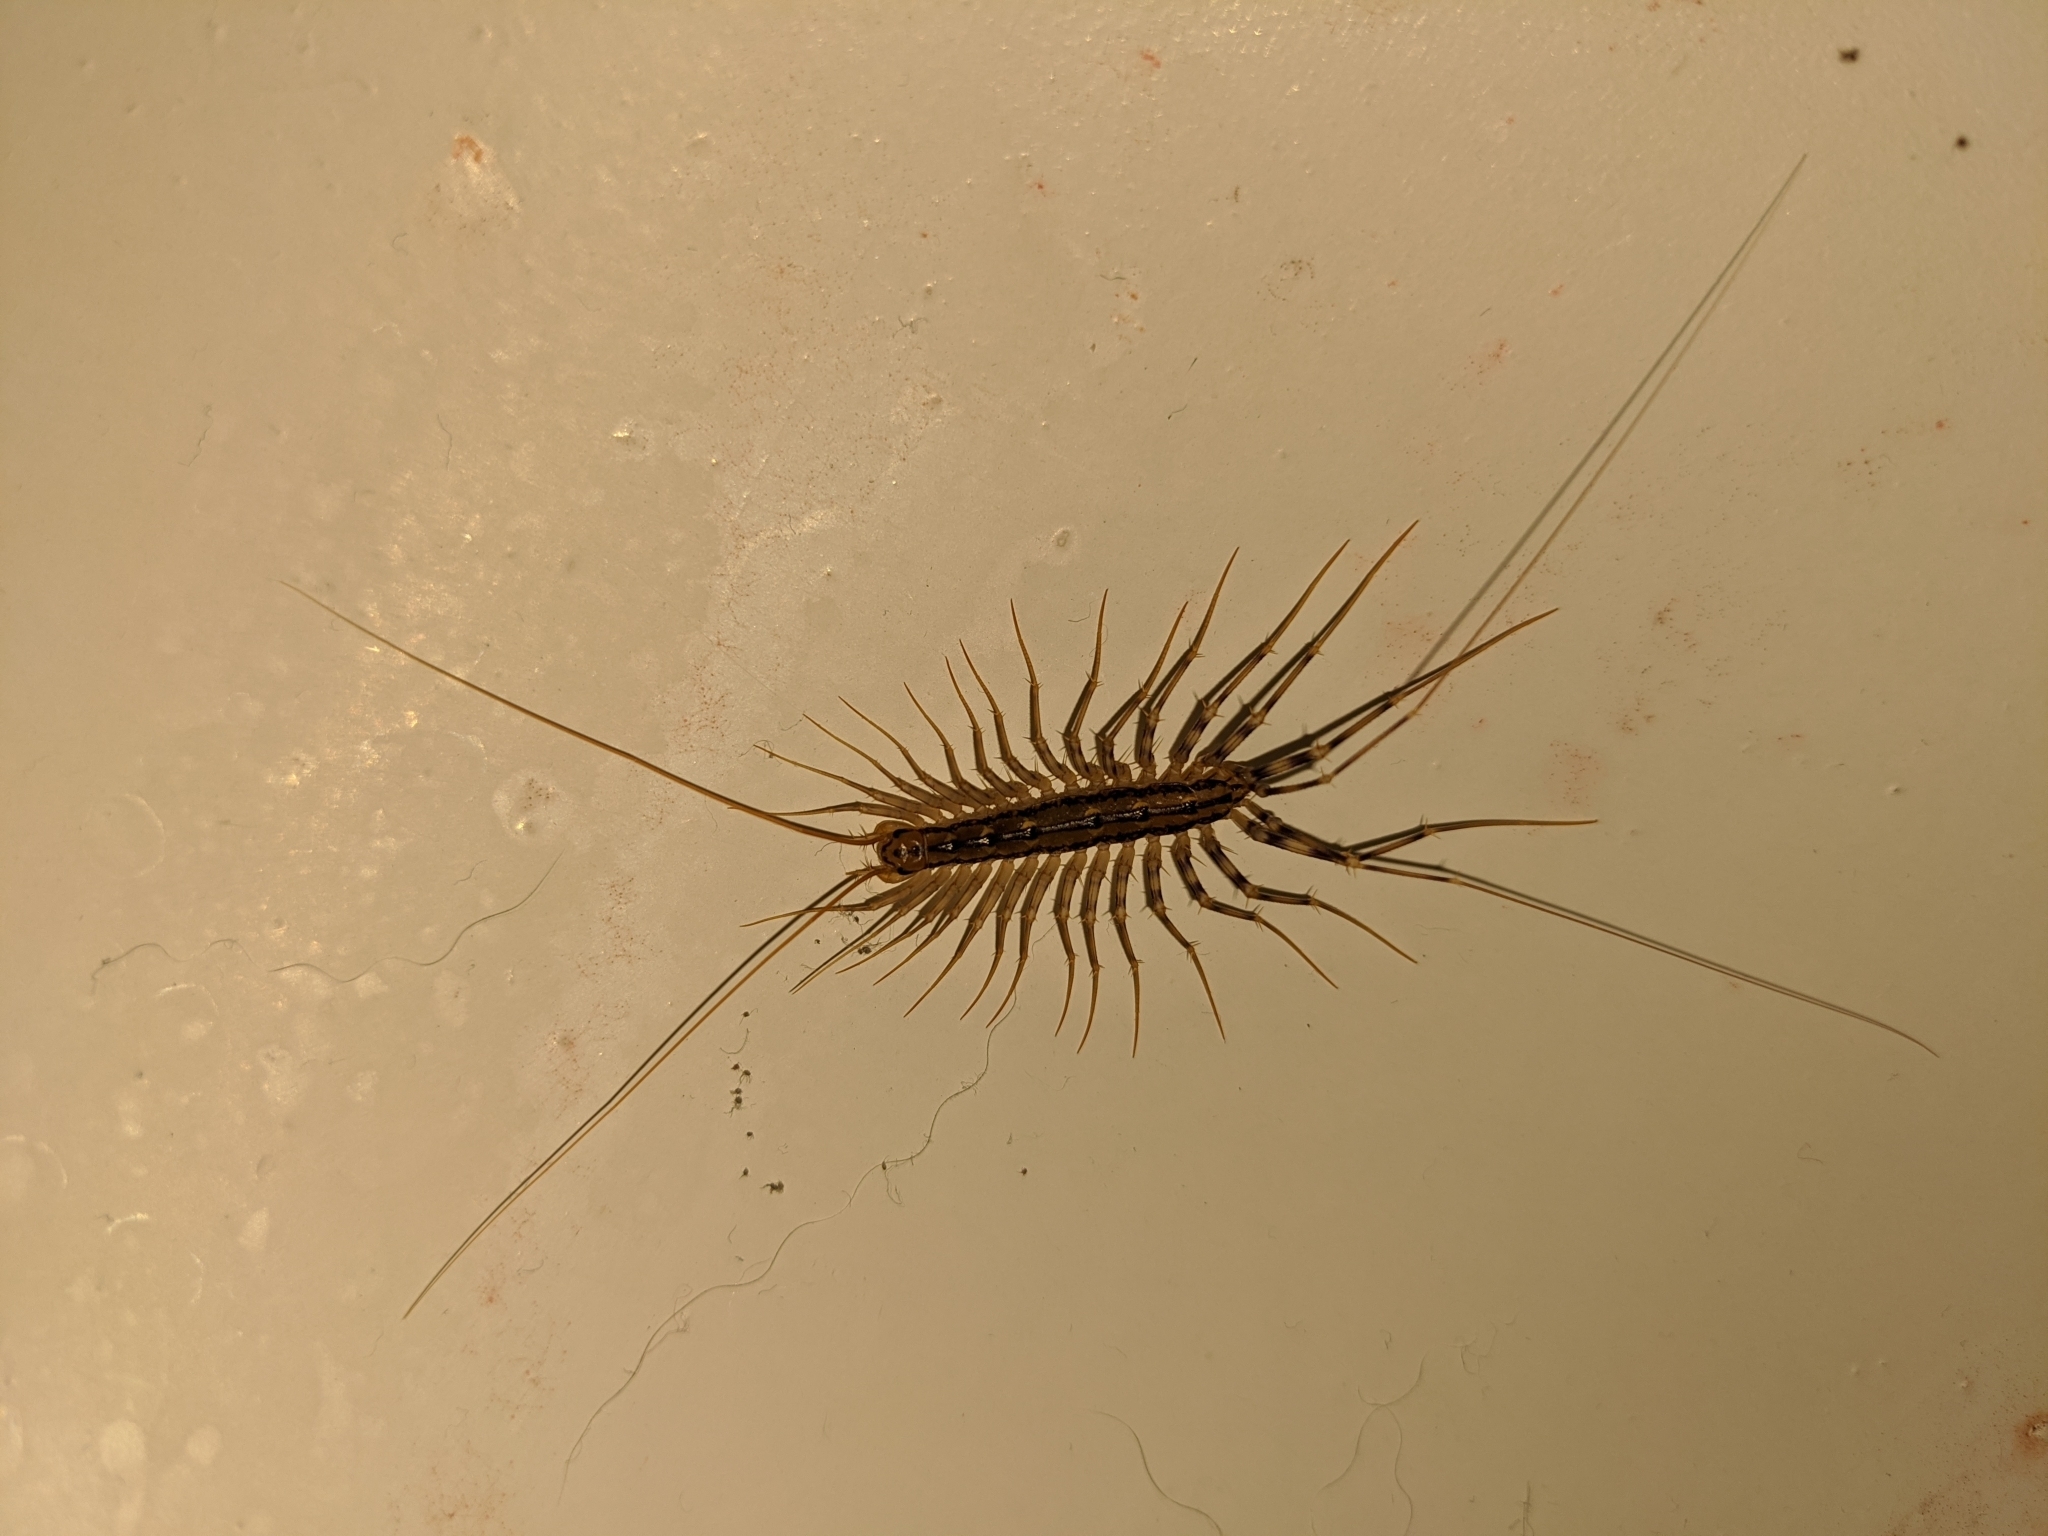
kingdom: Animalia
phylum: Arthropoda
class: Chilopoda
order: Scutigeromorpha
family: Scutigeridae
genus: Scutigera
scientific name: Scutigera coleoptrata
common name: House centipede
